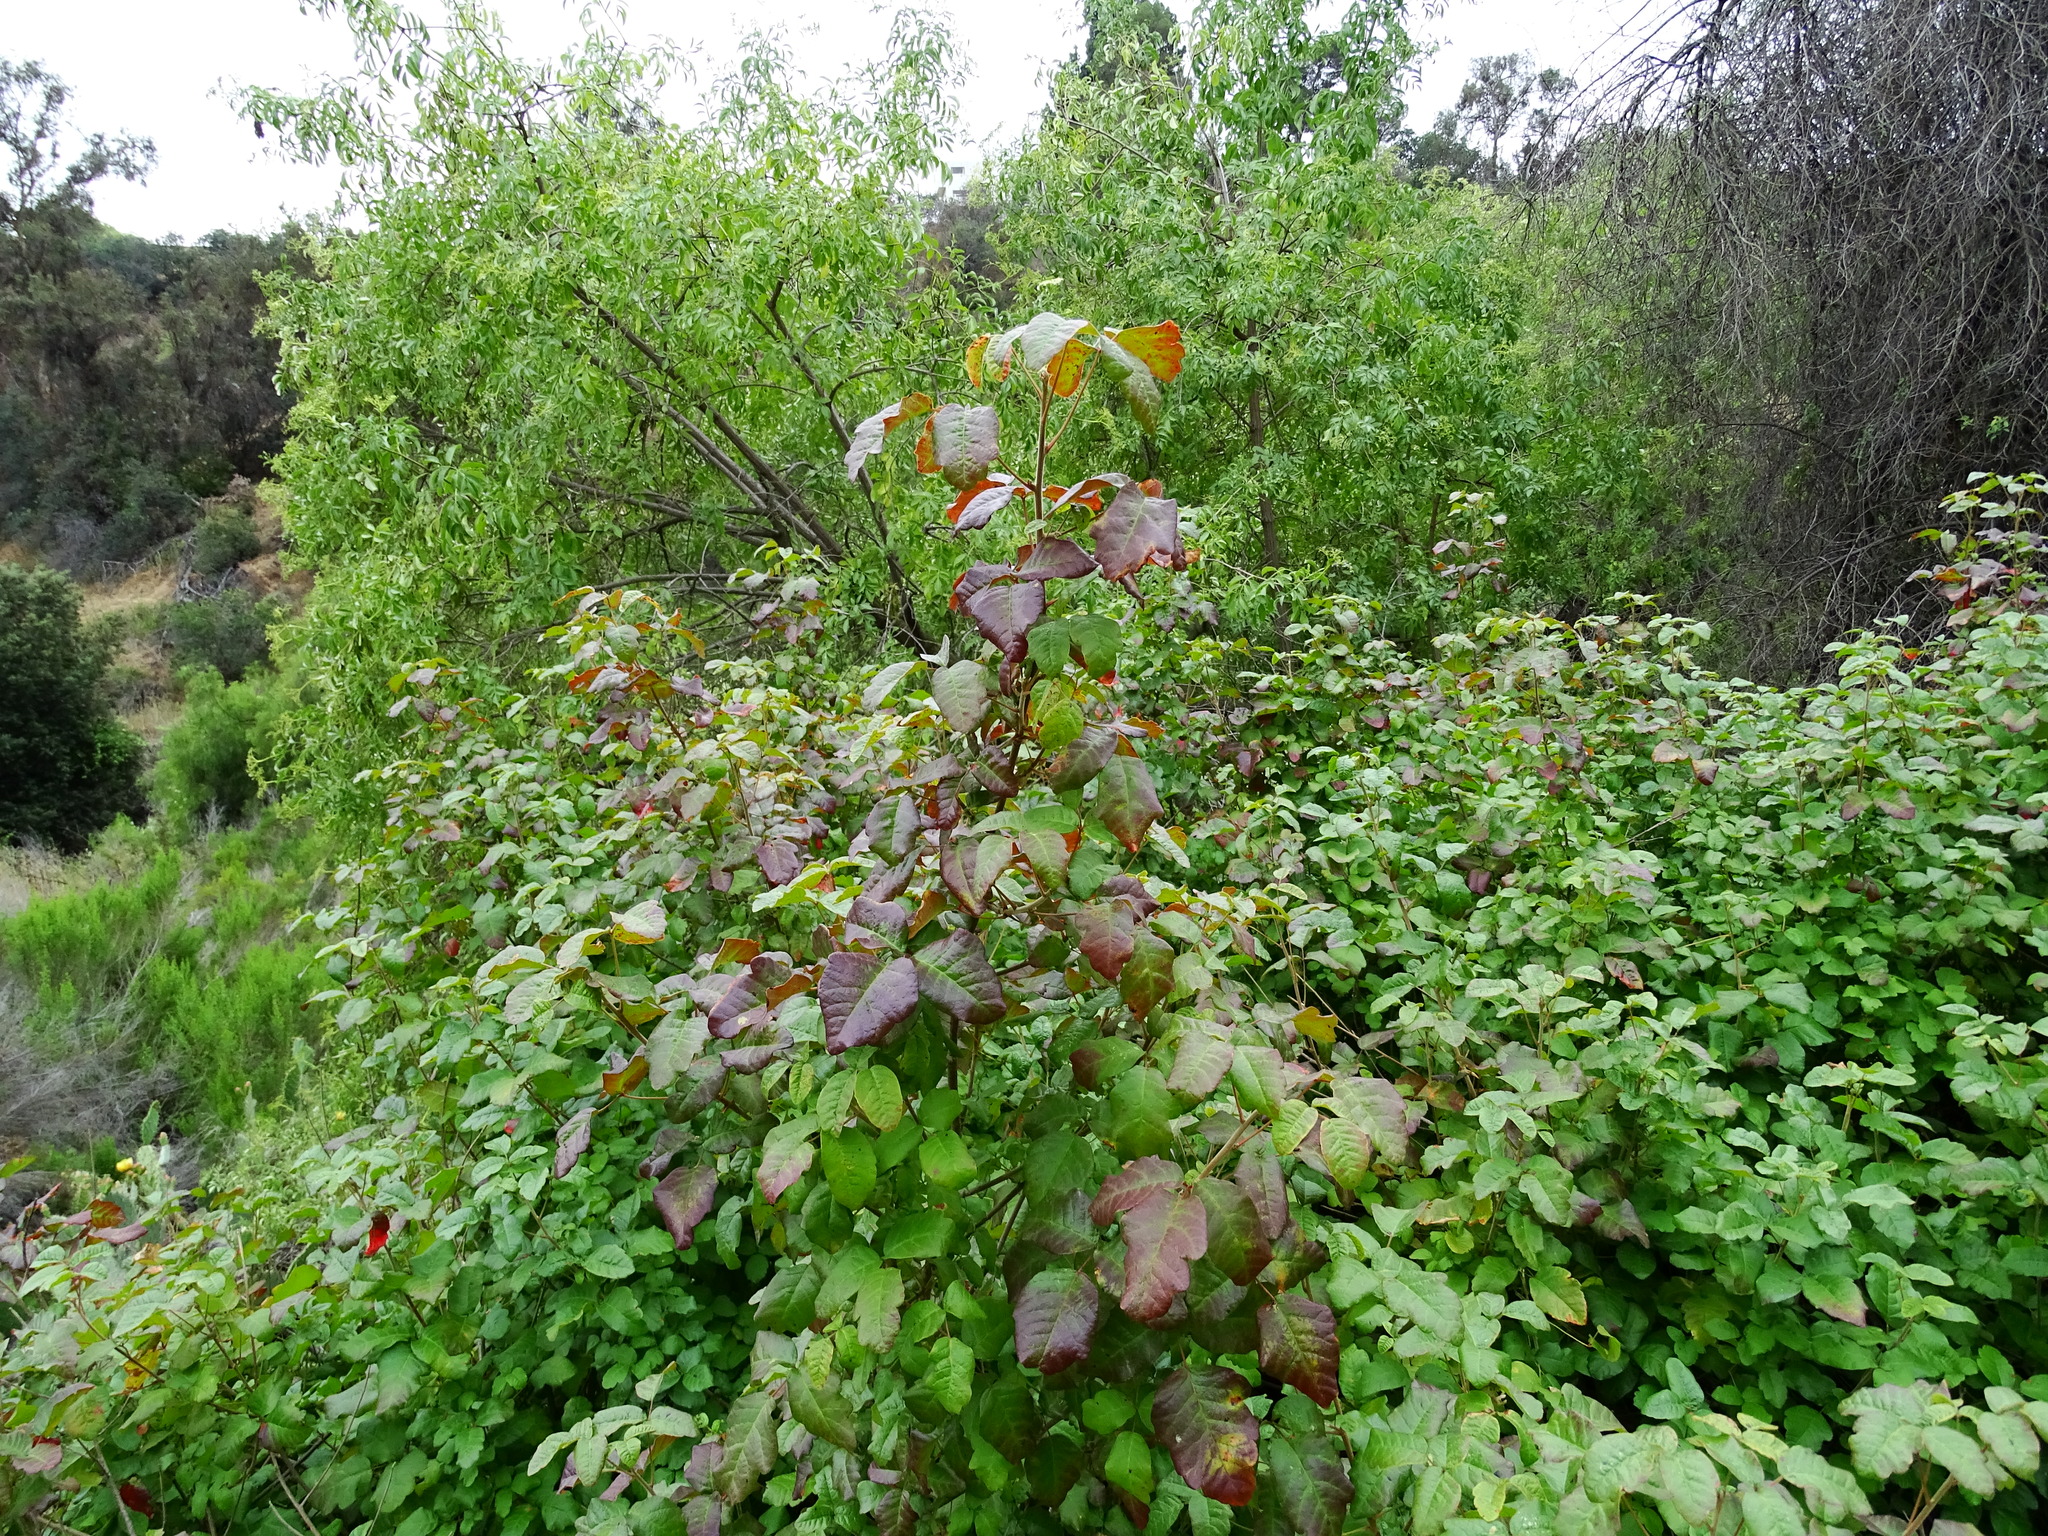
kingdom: Plantae
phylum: Tracheophyta
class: Magnoliopsida
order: Sapindales
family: Anacardiaceae
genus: Toxicodendron
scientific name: Toxicodendron diversilobum
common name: Pacific poison-oak
